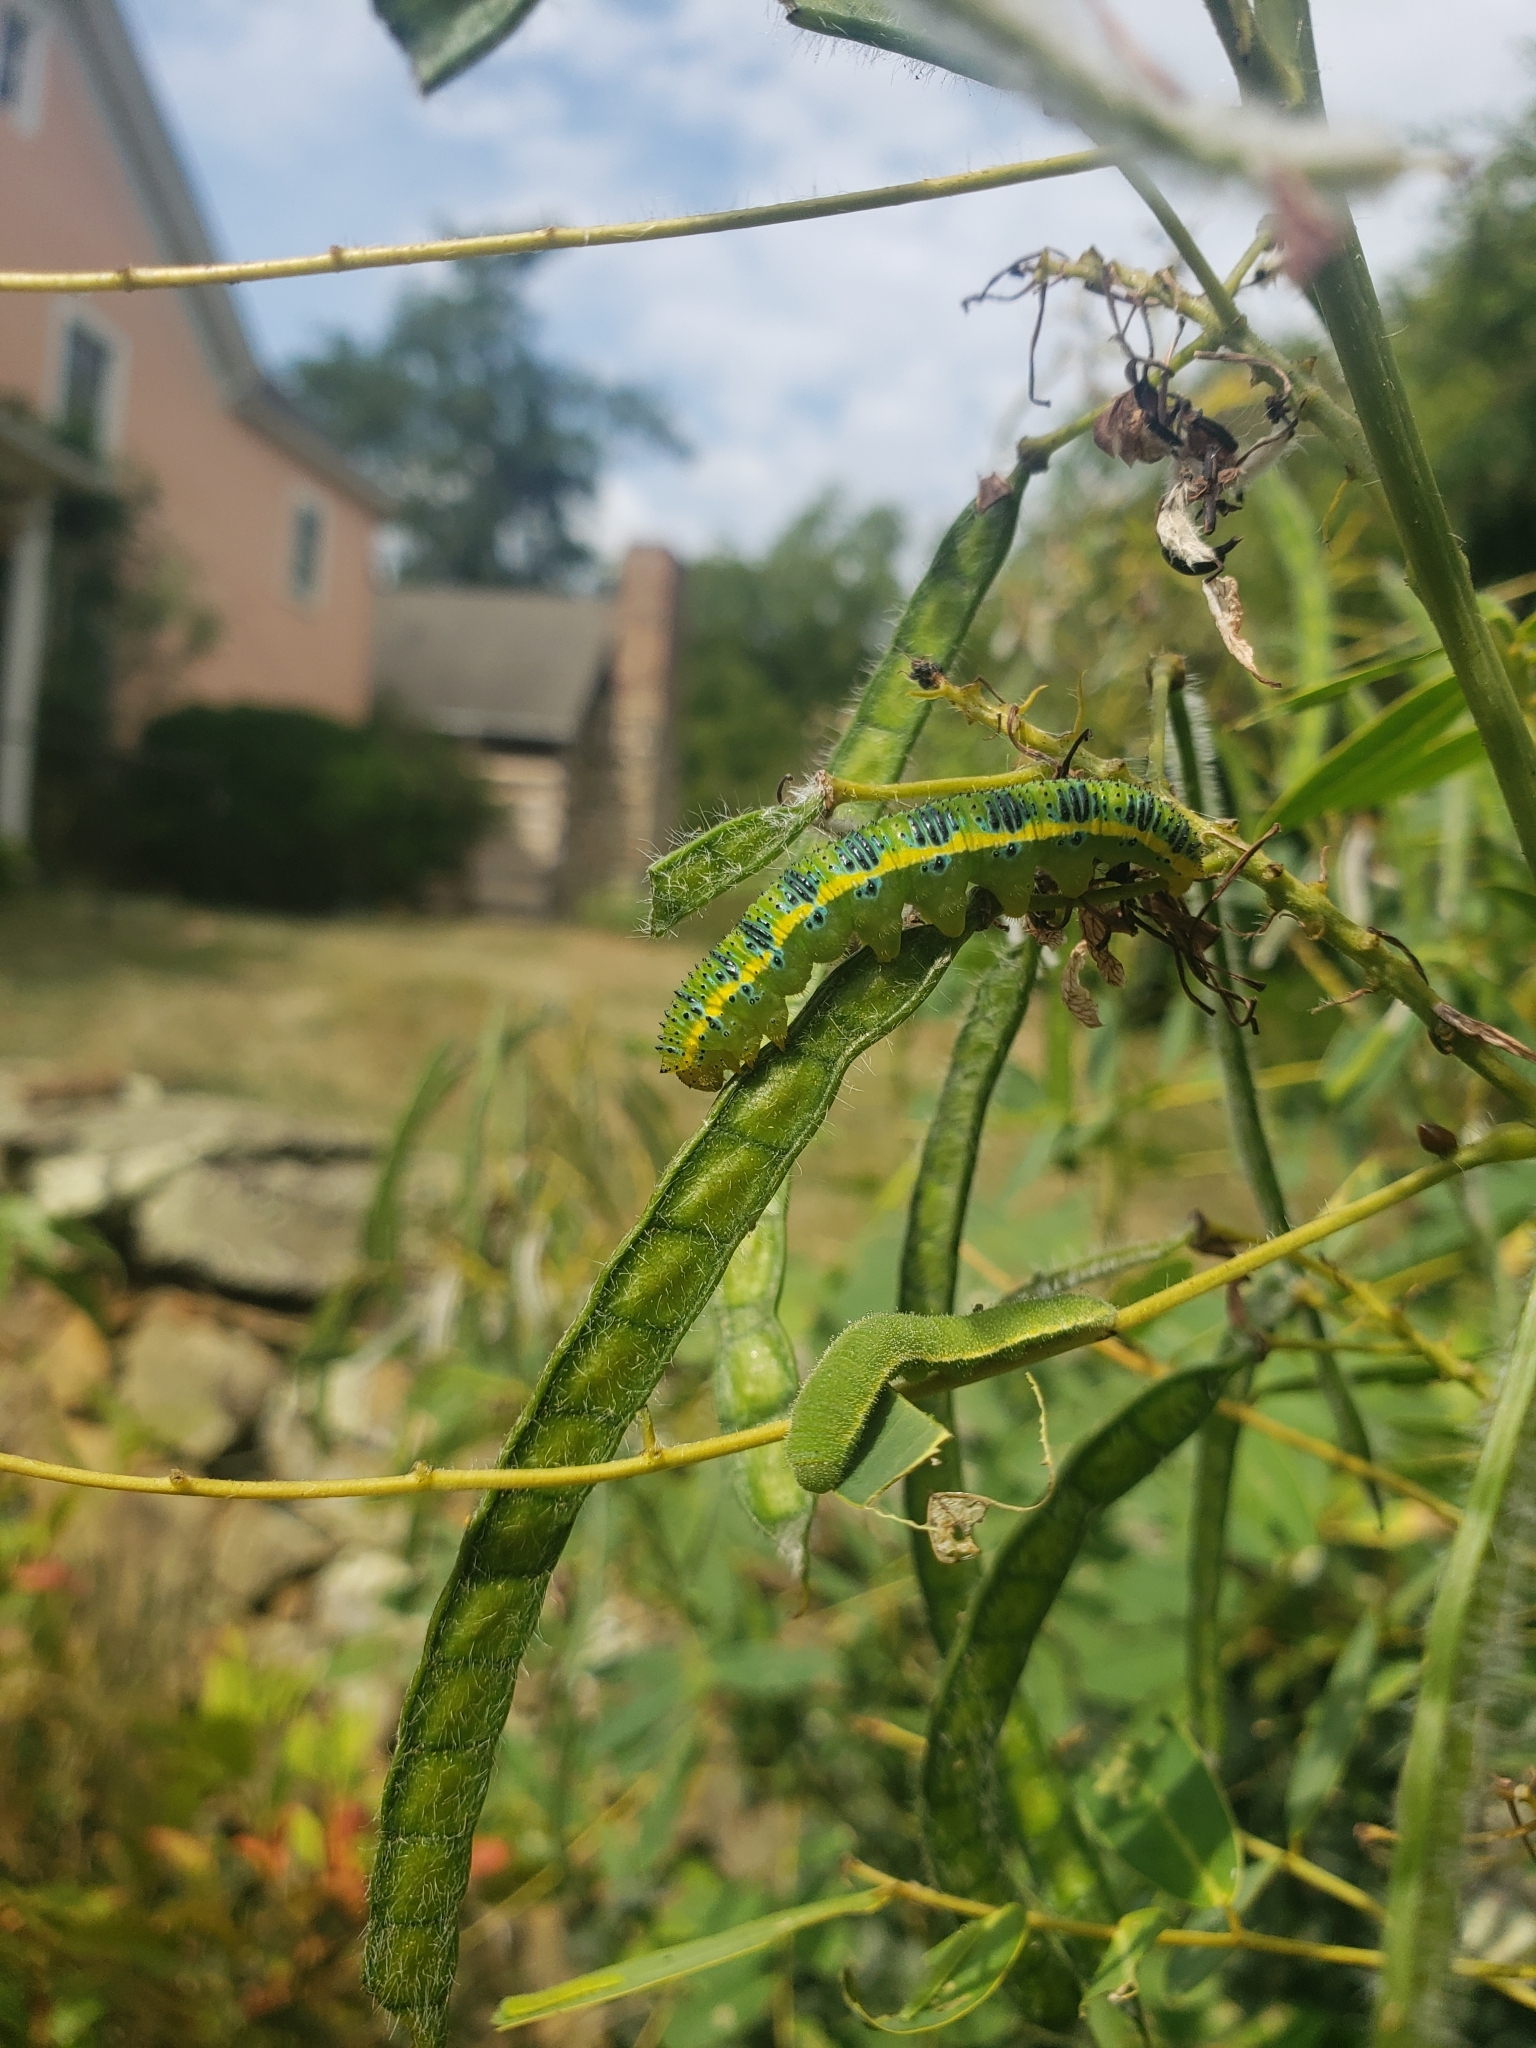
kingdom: Animalia
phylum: Arthropoda
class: Insecta
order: Lepidoptera
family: Pieridae
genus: Phoebis
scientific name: Phoebis sennae
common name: Cloudless sulphur
